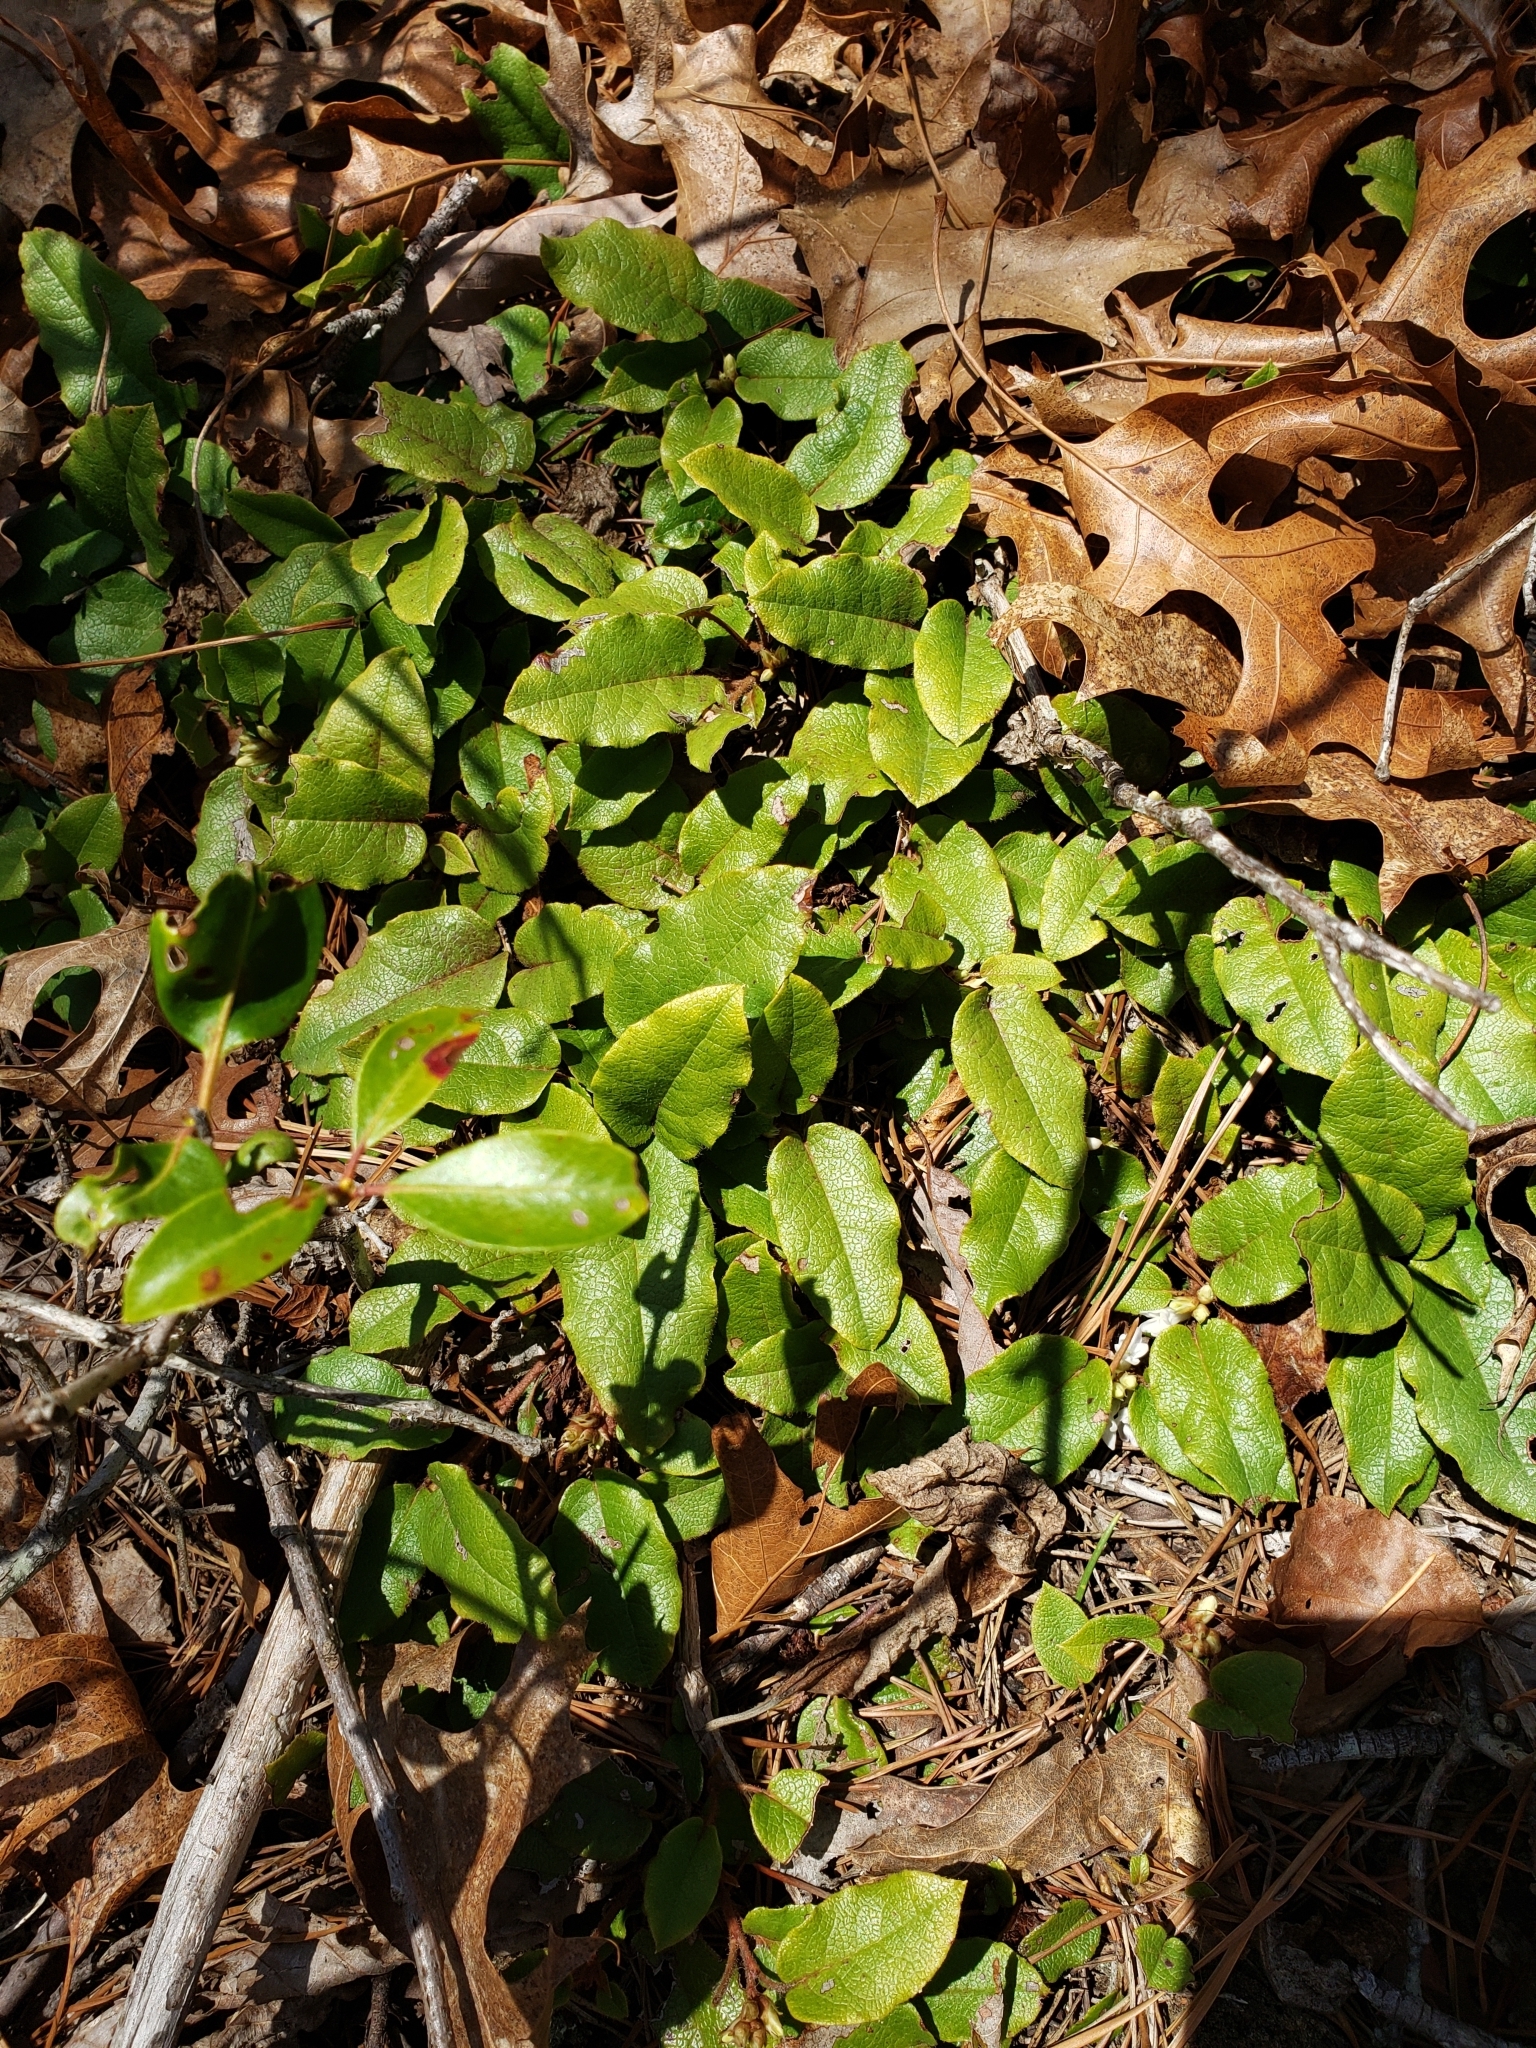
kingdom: Plantae
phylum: Tracheophyta
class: Magnoliopsida
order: Ericales
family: Ericaceae
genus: Epigaea
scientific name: Epigaea repens
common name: Gravelroot
